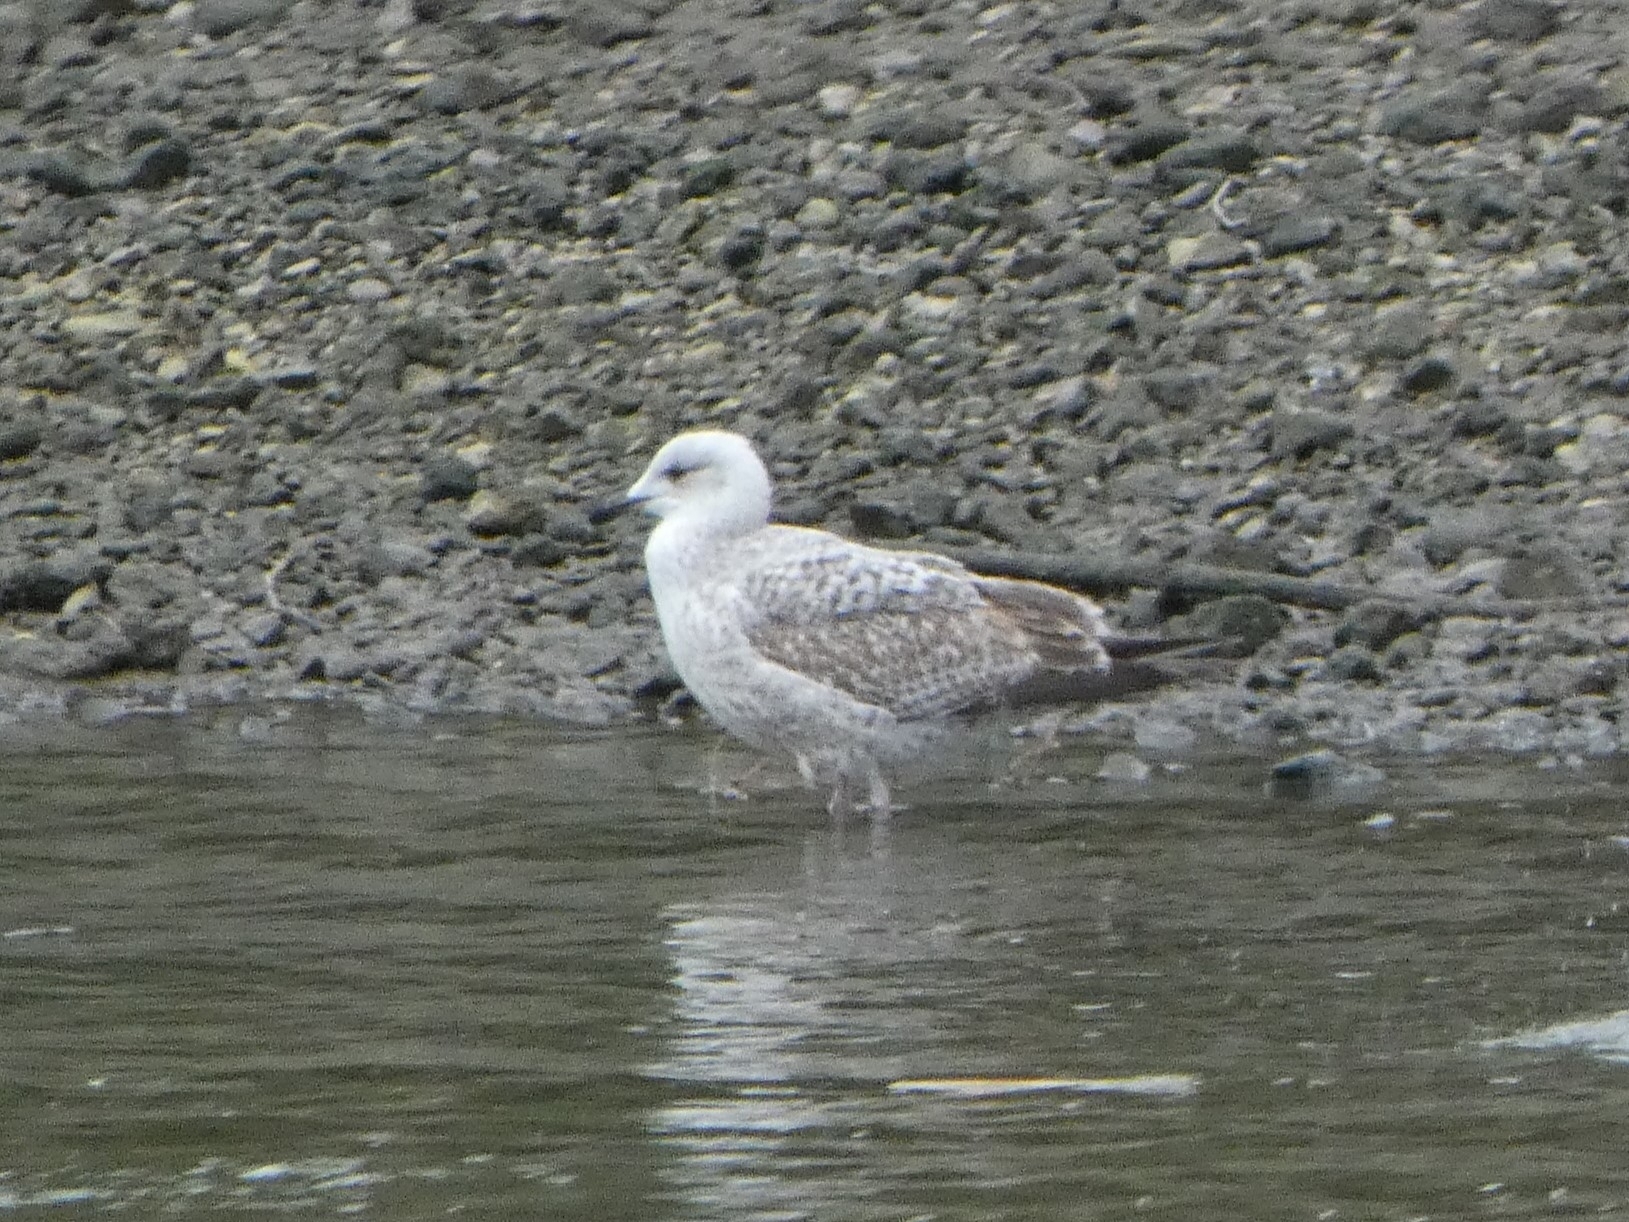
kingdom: Animalia
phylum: Chordata
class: Aves
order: Charadriiformes
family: Laridae
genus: Larus
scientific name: Larus argentatus
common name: Herring gull
